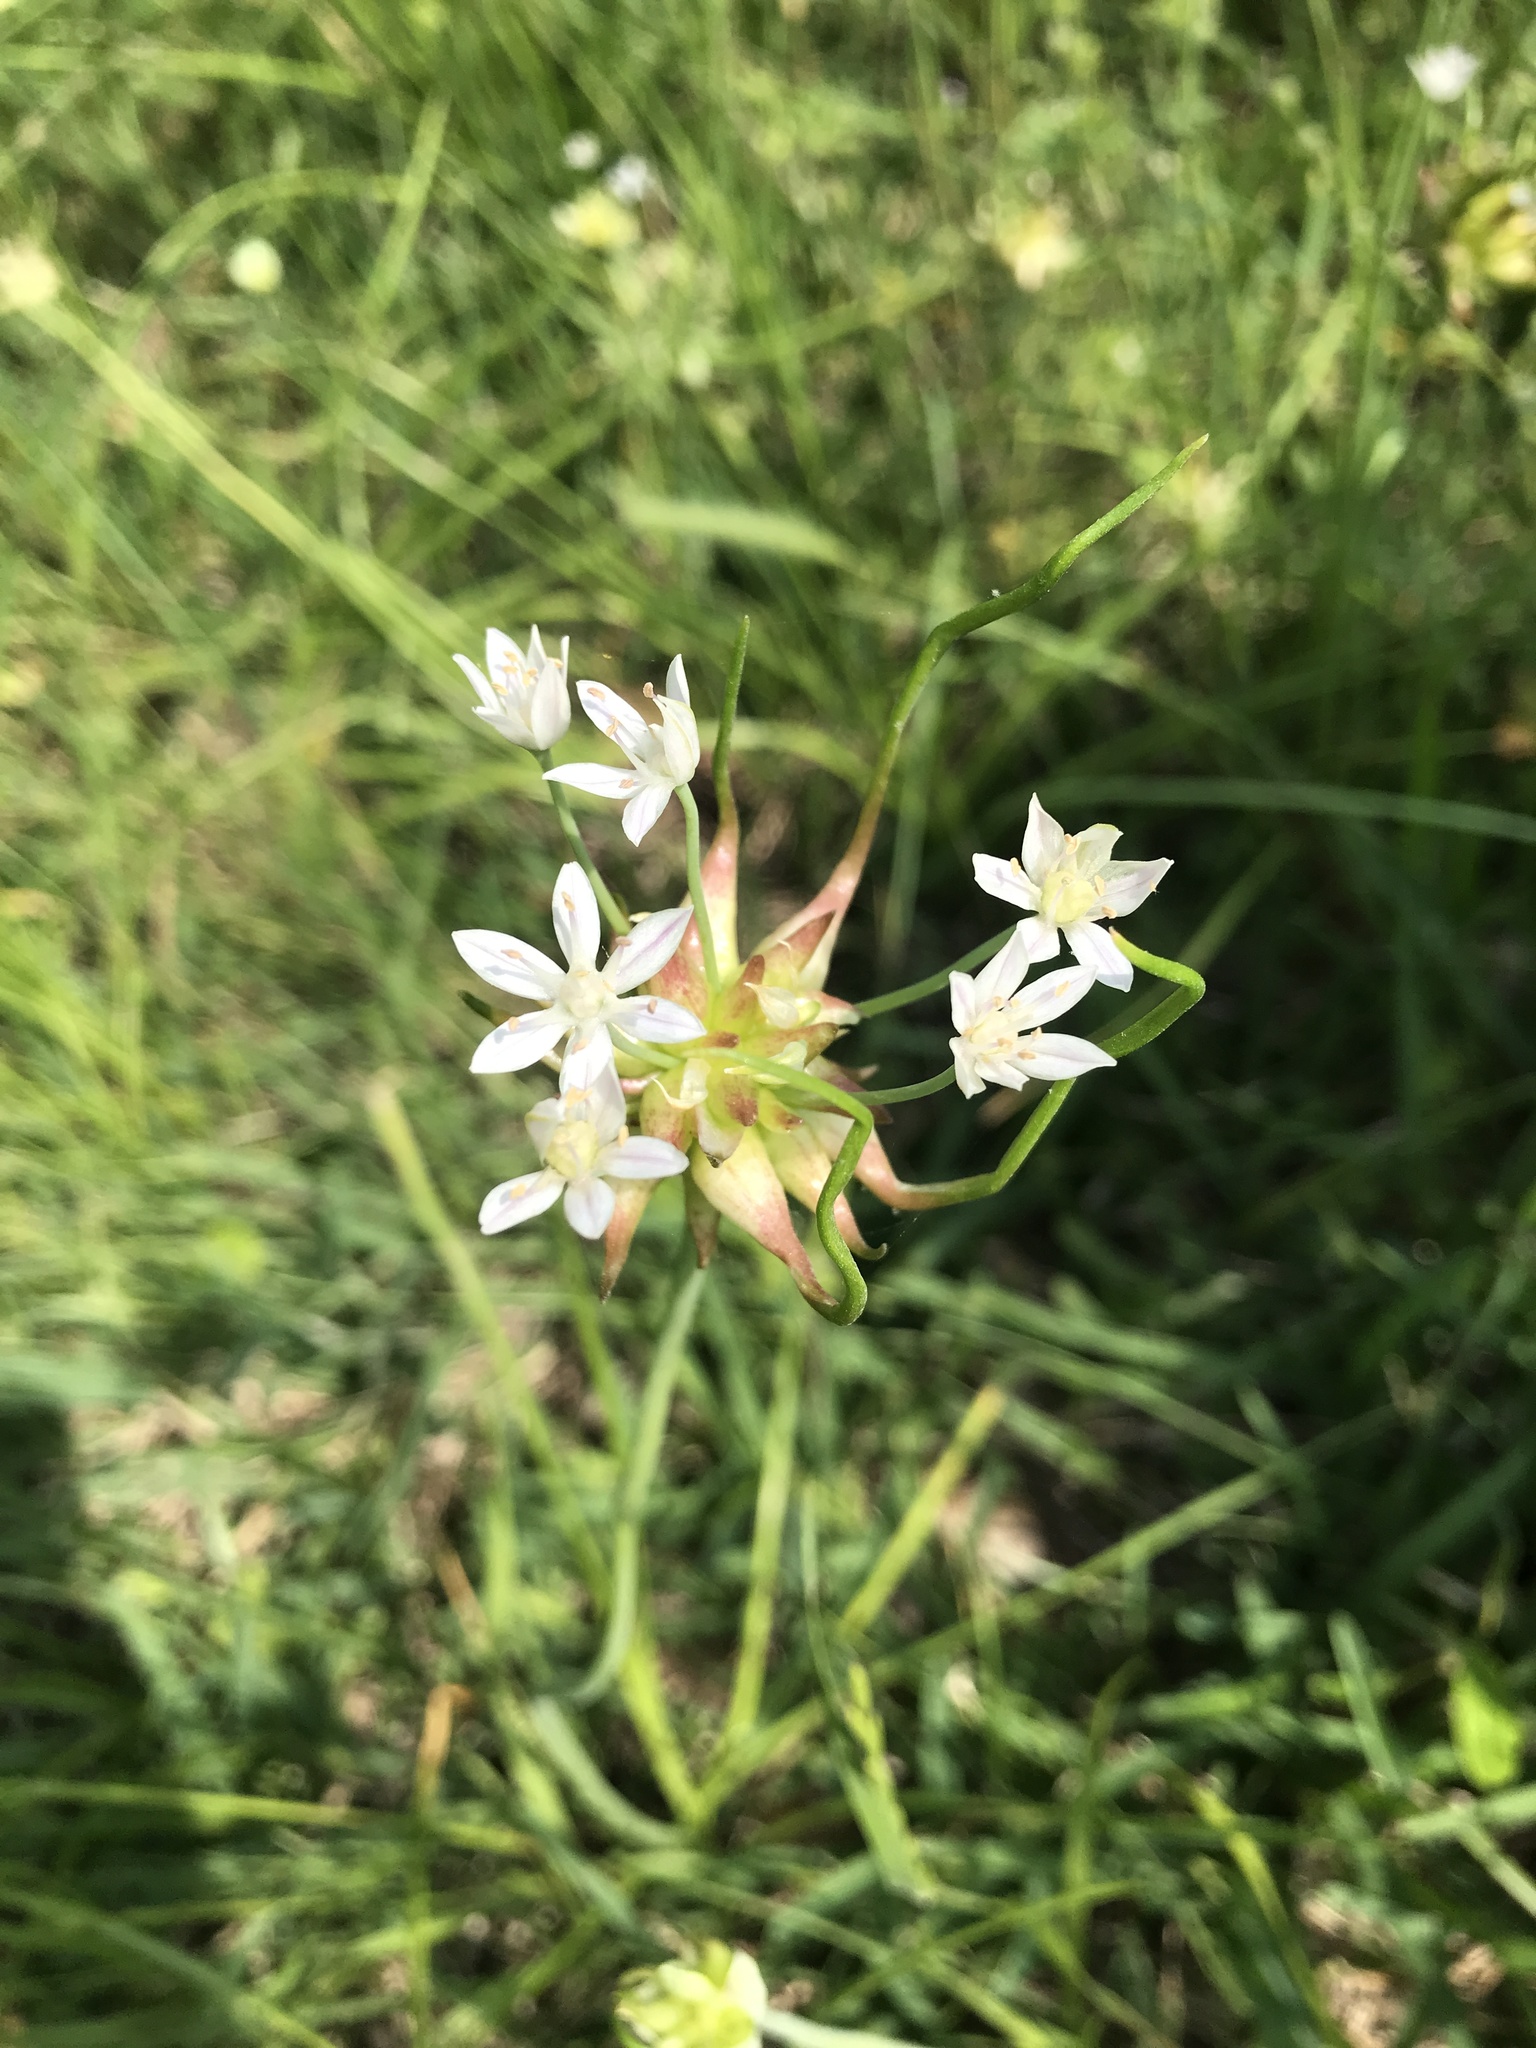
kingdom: Plantae
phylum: Tracheophyta
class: Liliopsida
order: Asparagales
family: Amaryllidaceae
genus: Allium
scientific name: Allium canadense
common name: Meadow garlic
